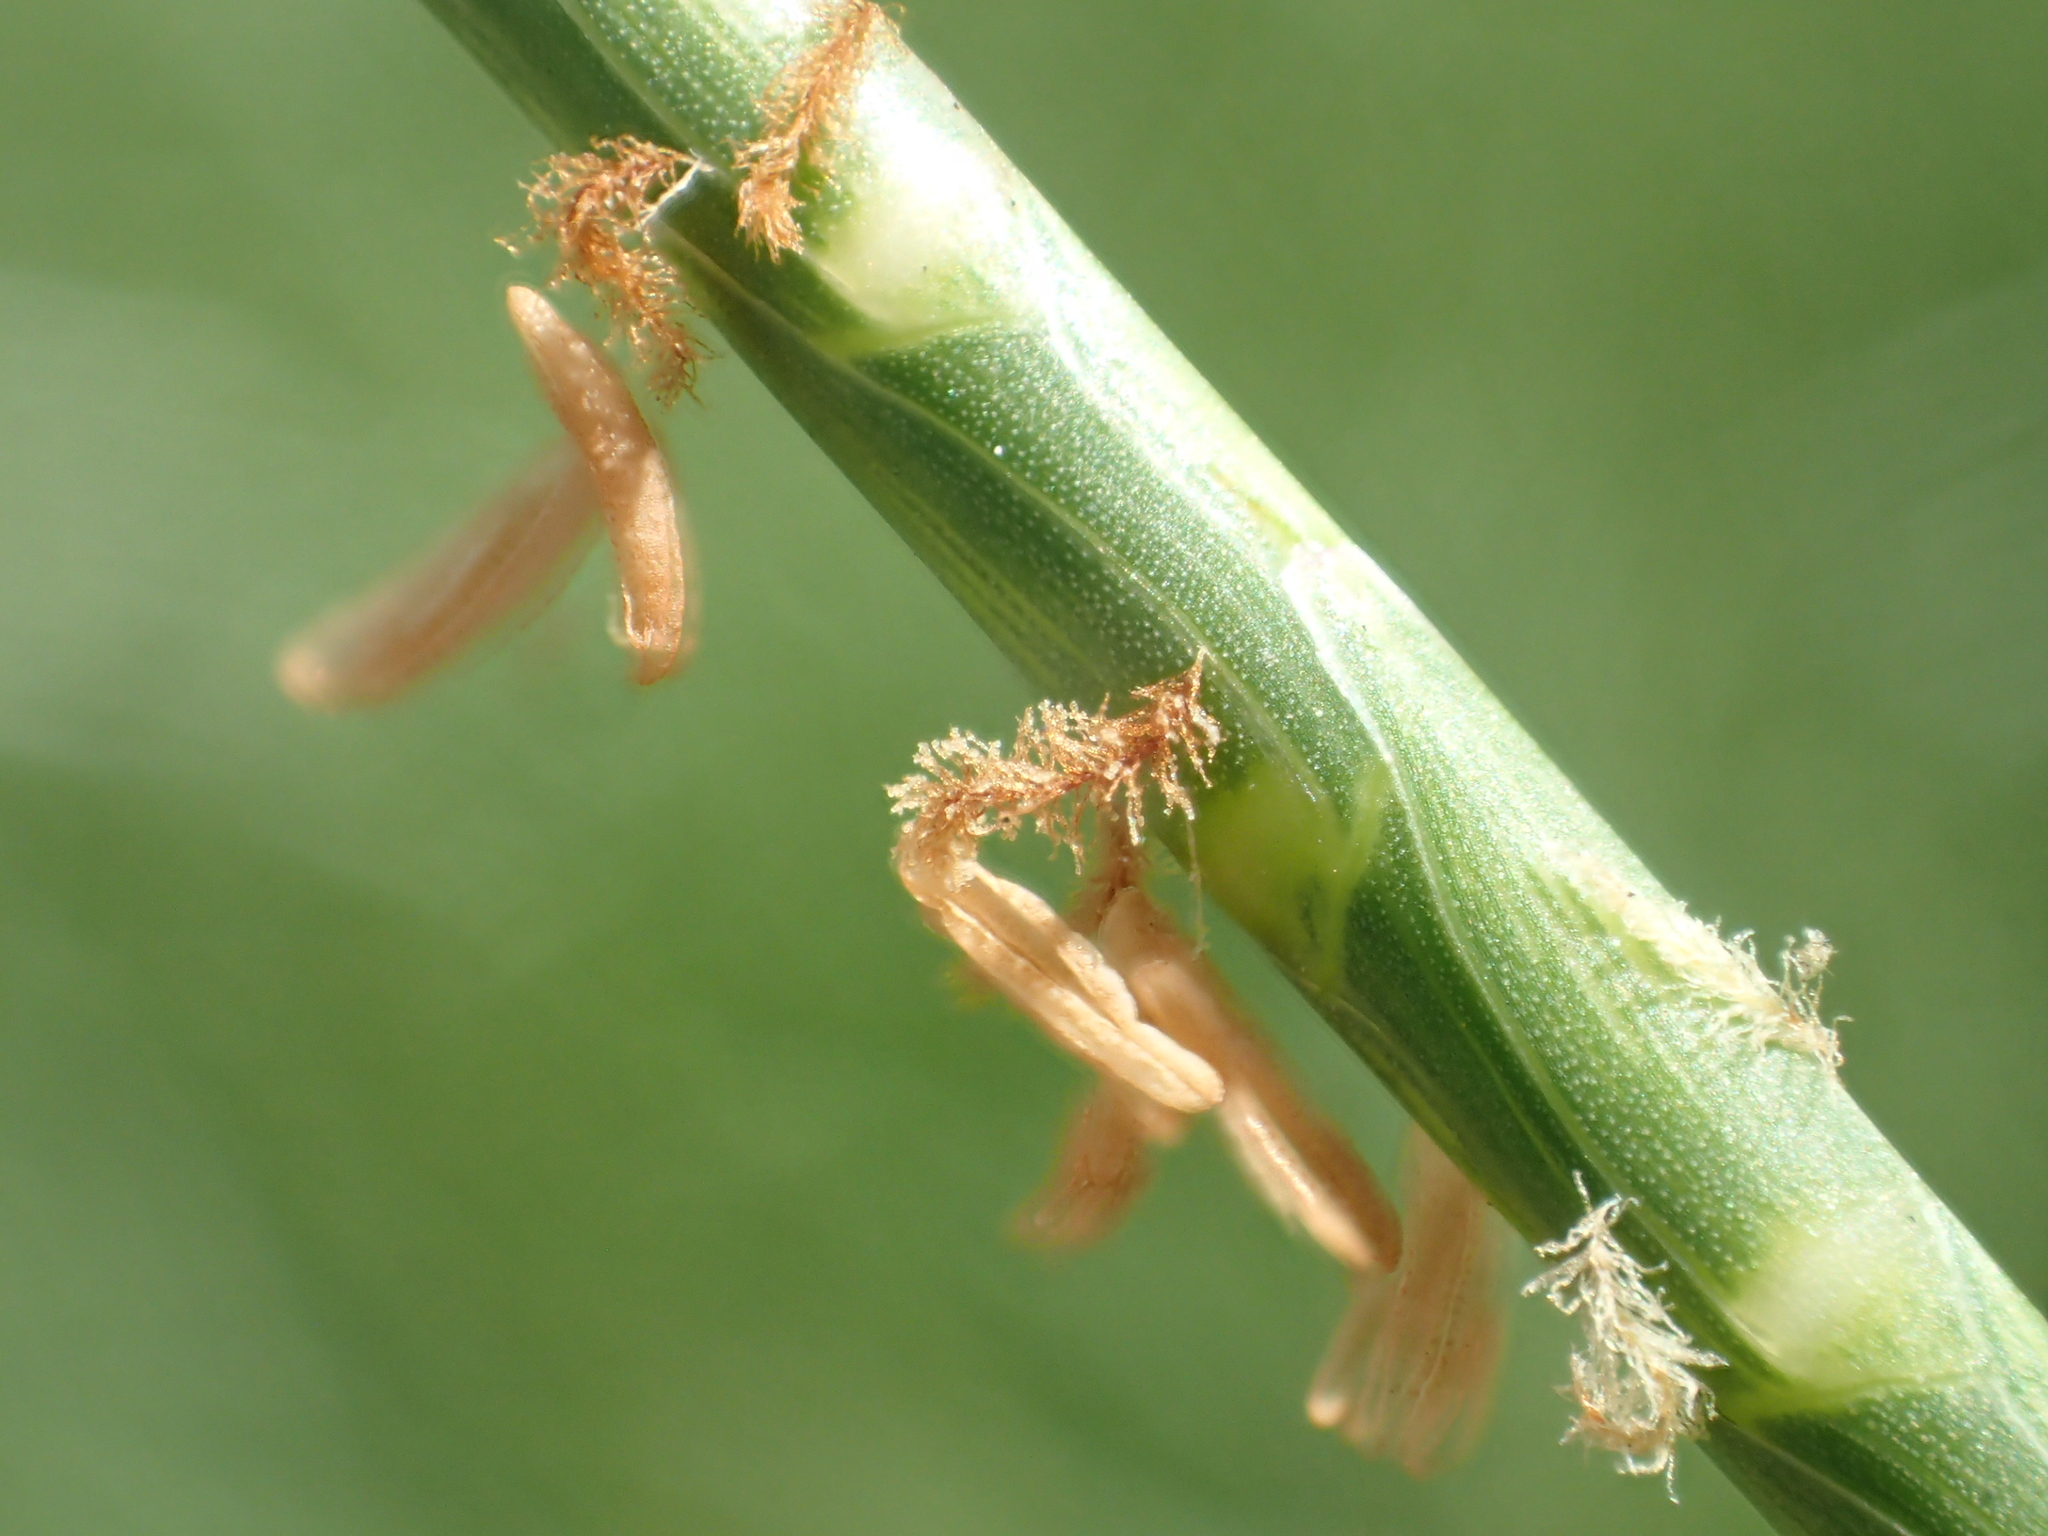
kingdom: Plantae
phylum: Tracheophyta
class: Liliopsida
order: Poales
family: Poaceae
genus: Hemarthria
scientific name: Hemarthria compressa
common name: Whip grass
